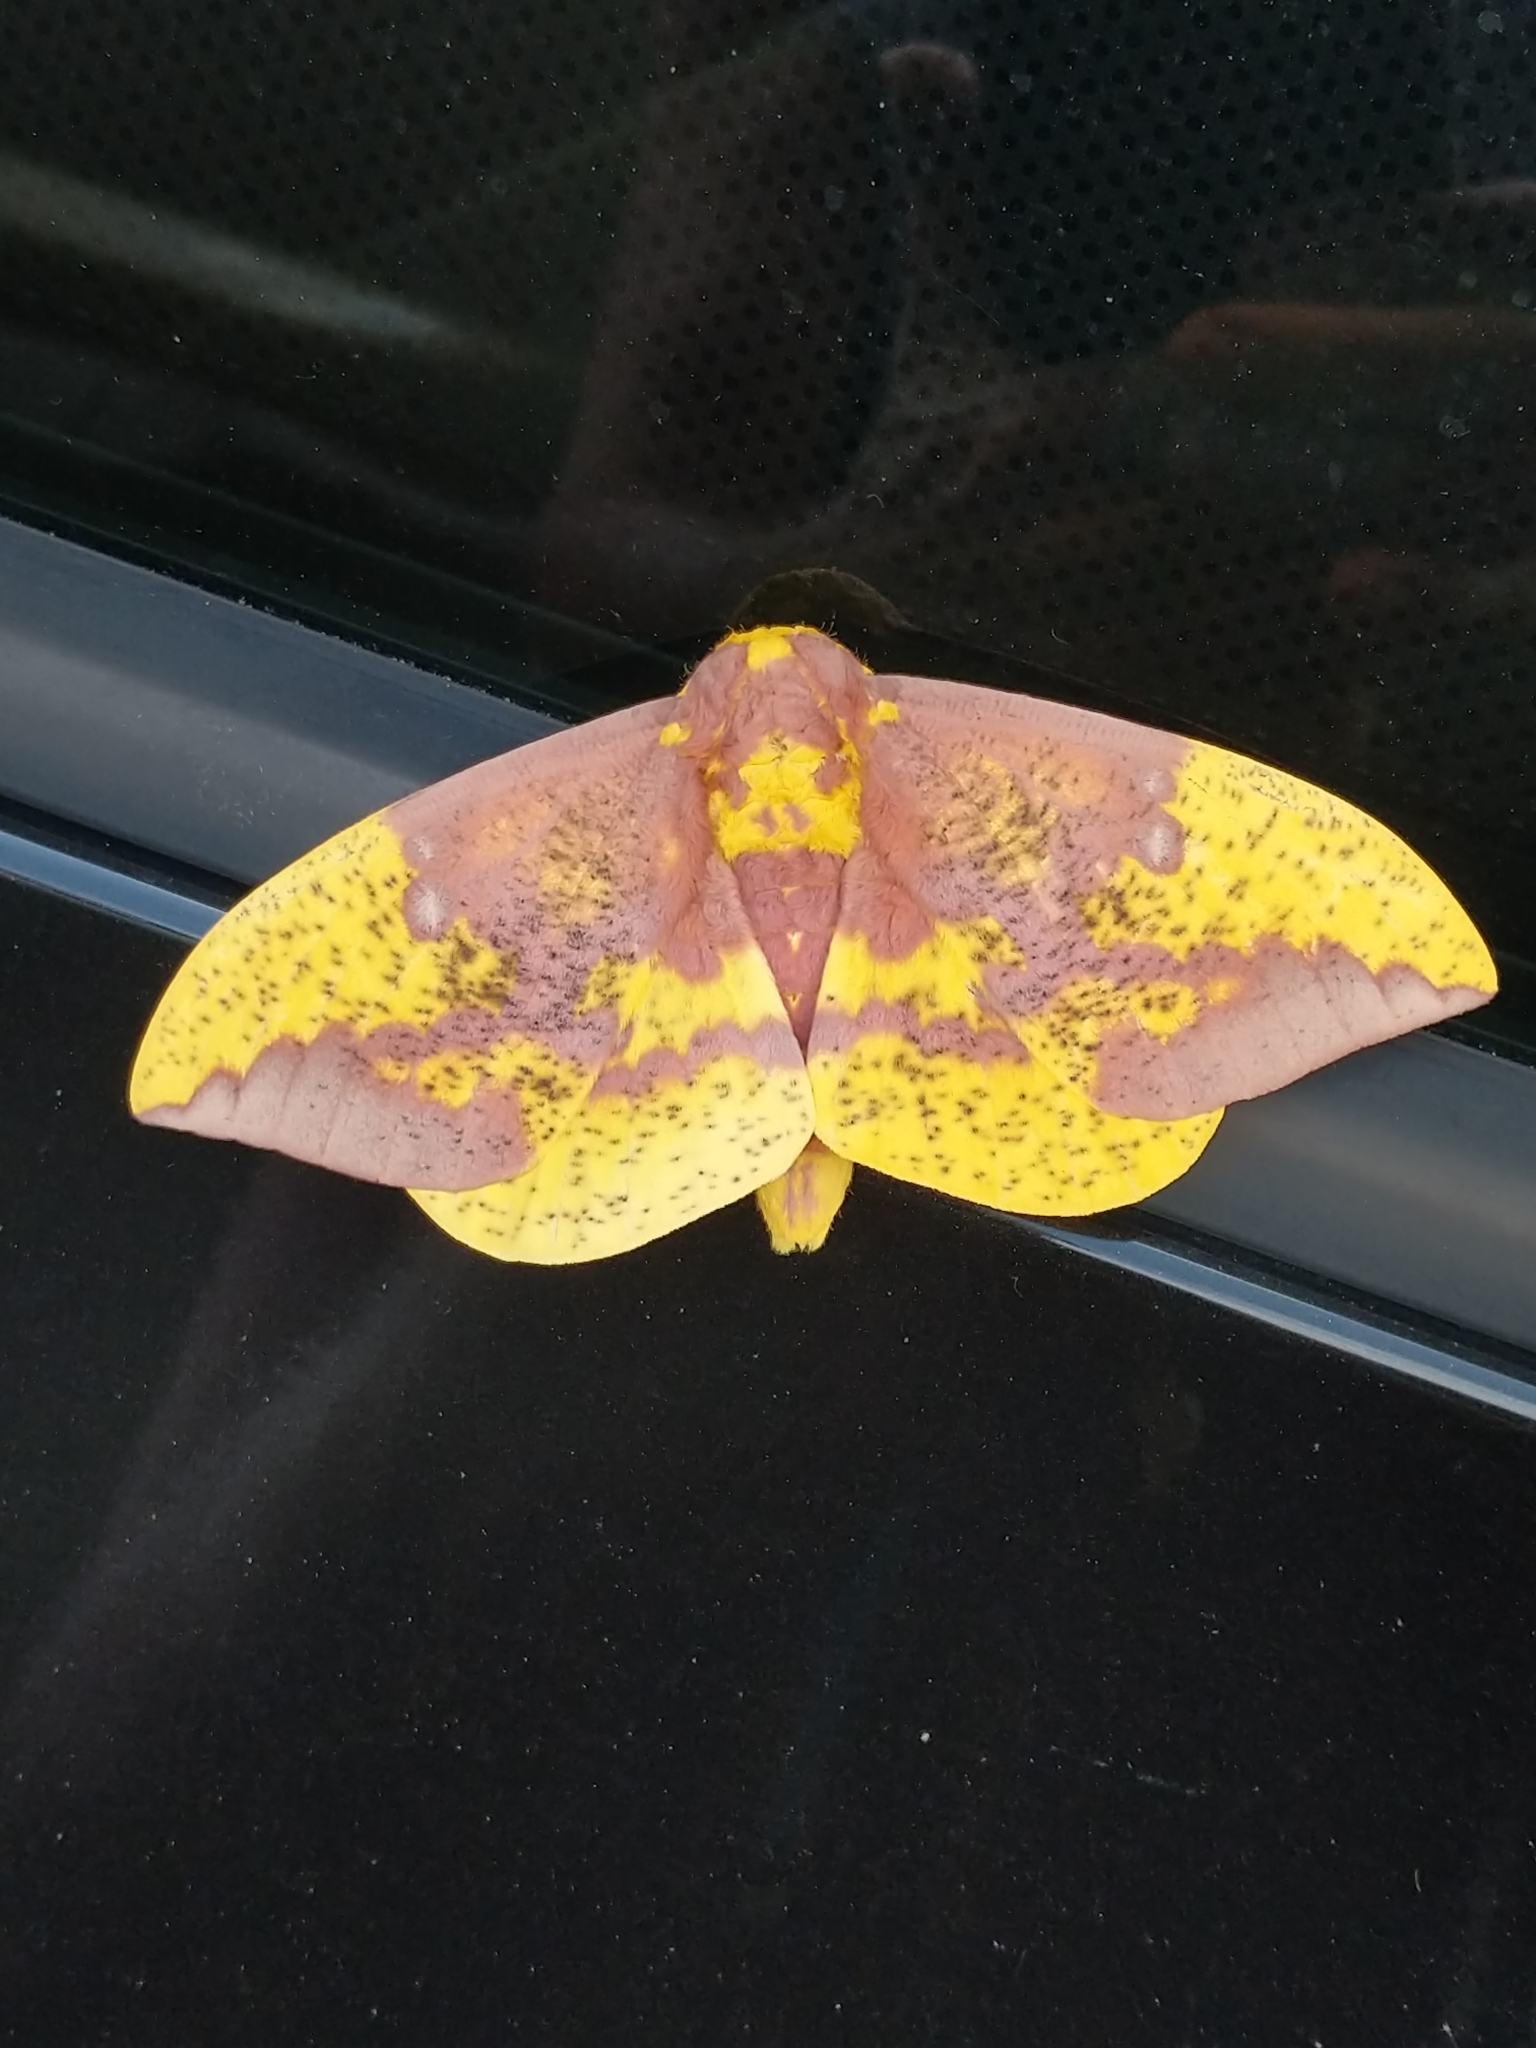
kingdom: Animalia
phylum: Arthropoda
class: Insecta
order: Lepidoptera
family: Saturniidae
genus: Eacles
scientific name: Eacles imperialis
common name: Imperial moth
